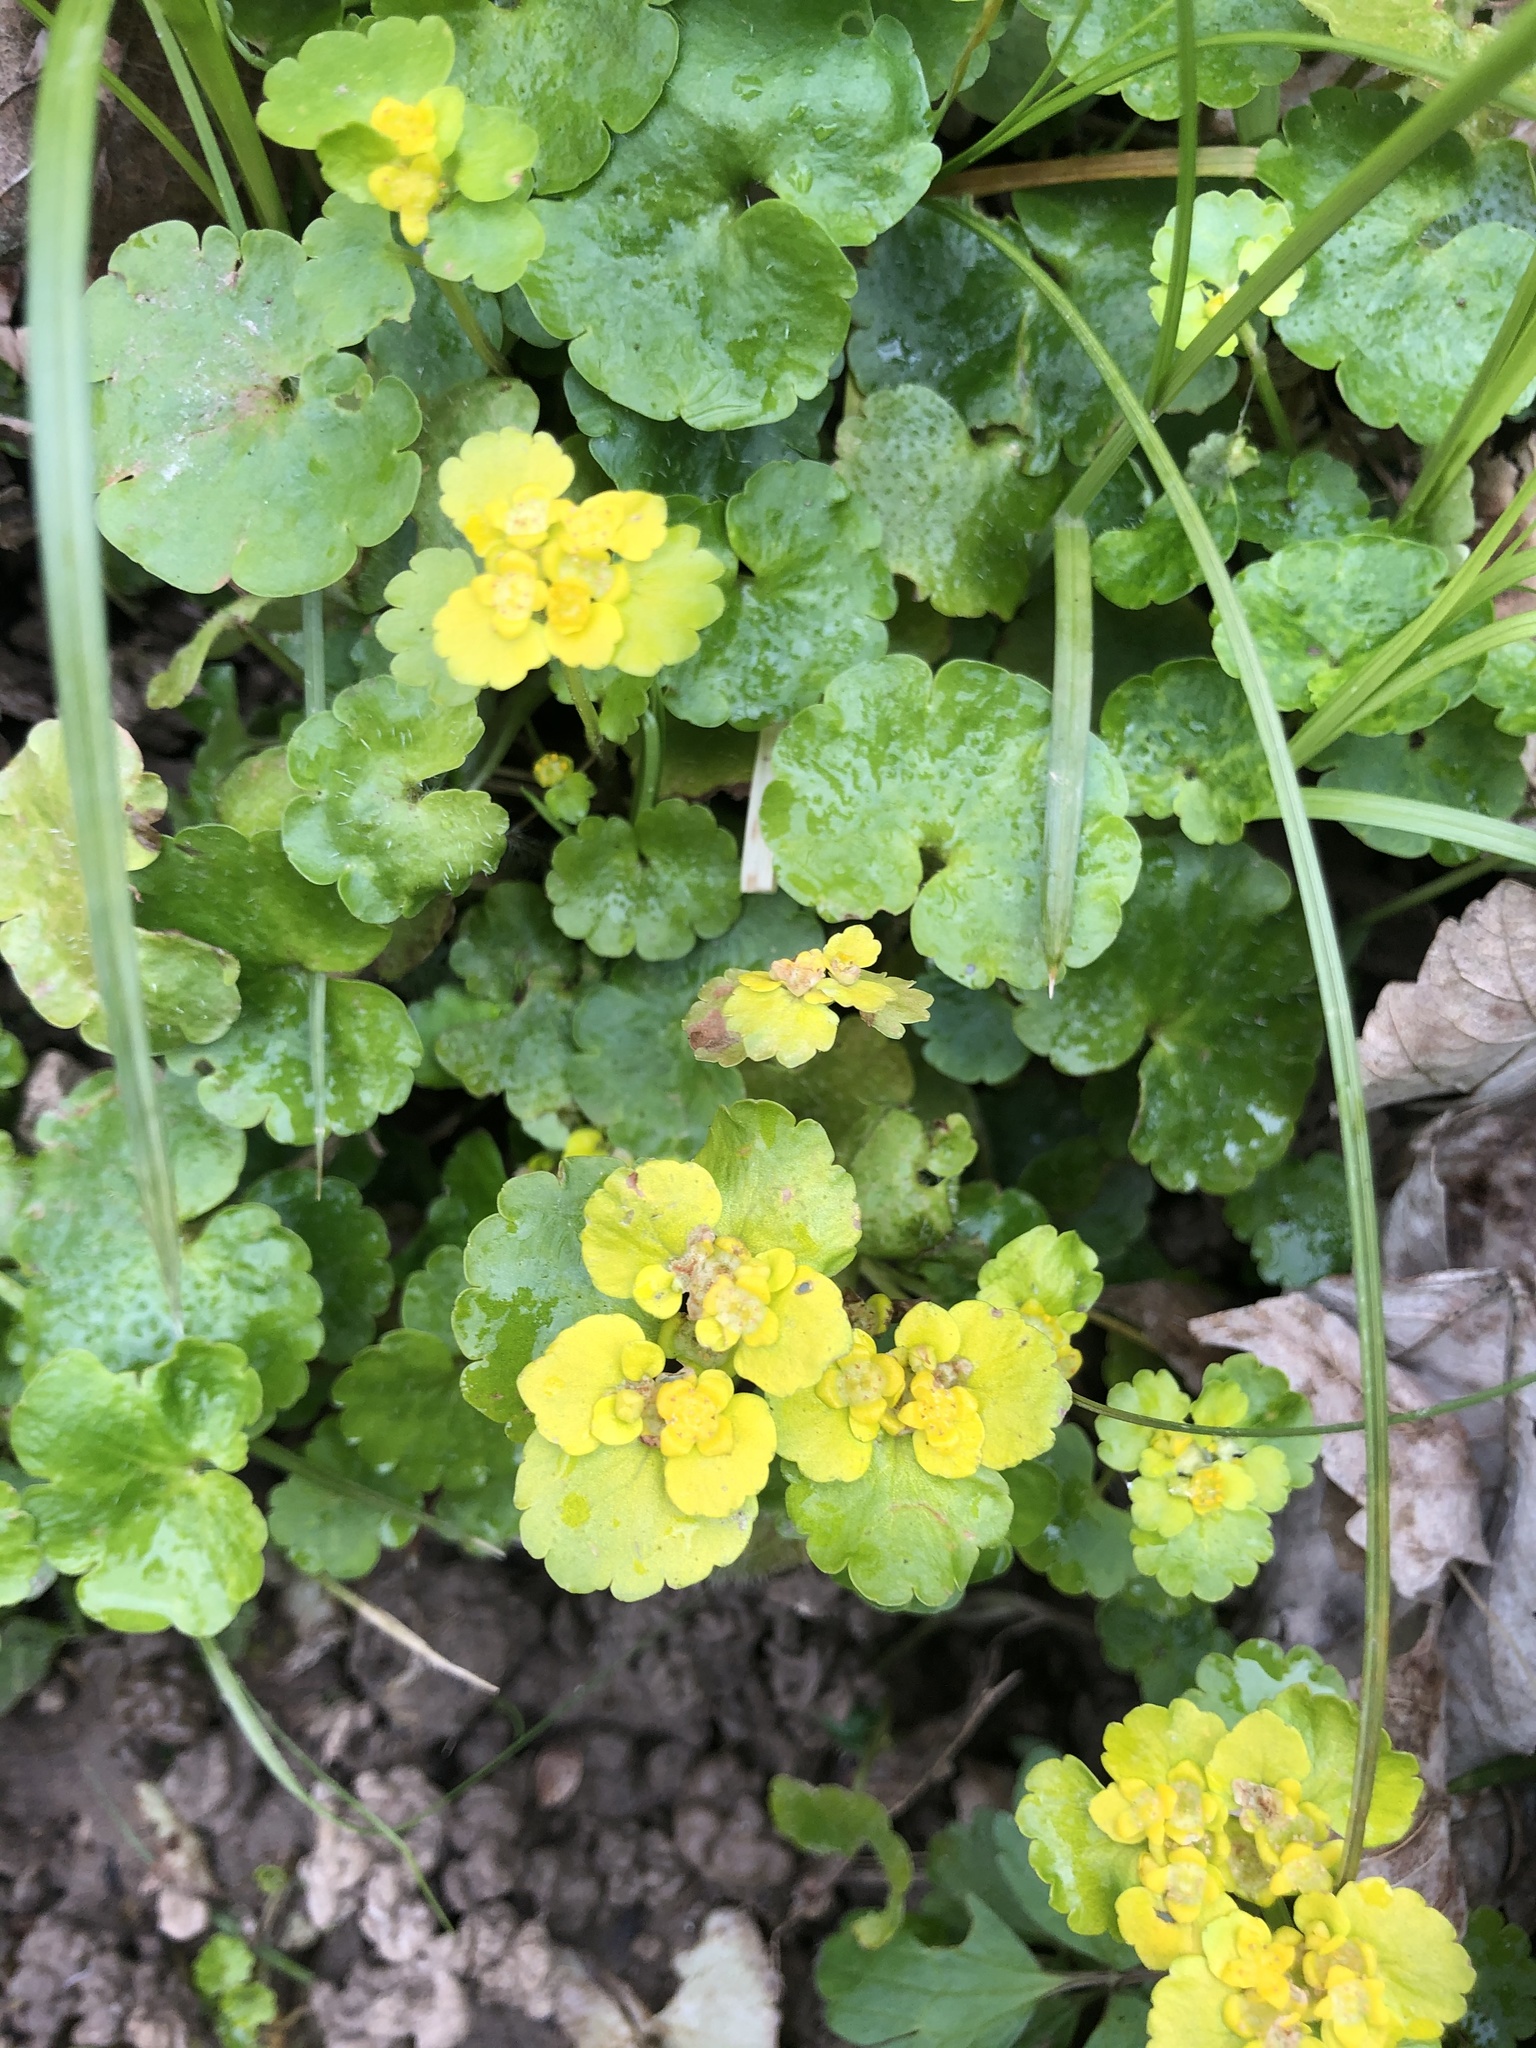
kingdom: Plantae
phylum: Tracheophyta
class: Magnoliopsida
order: Saxifragales
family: Saxifragaceae
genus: Chrysosplenium
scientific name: Chrysosplenium alternifolium
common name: Alternate-leaved golden-saxifrage
